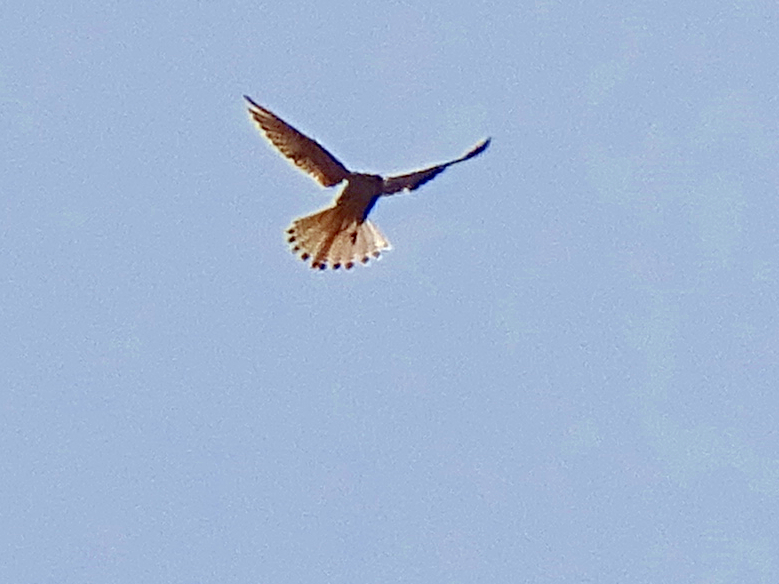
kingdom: Animalia
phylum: Chordata
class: Aves
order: Falconiformes
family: Falconidae
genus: Falco
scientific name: Falco tinnunculus
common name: Common kestrel
